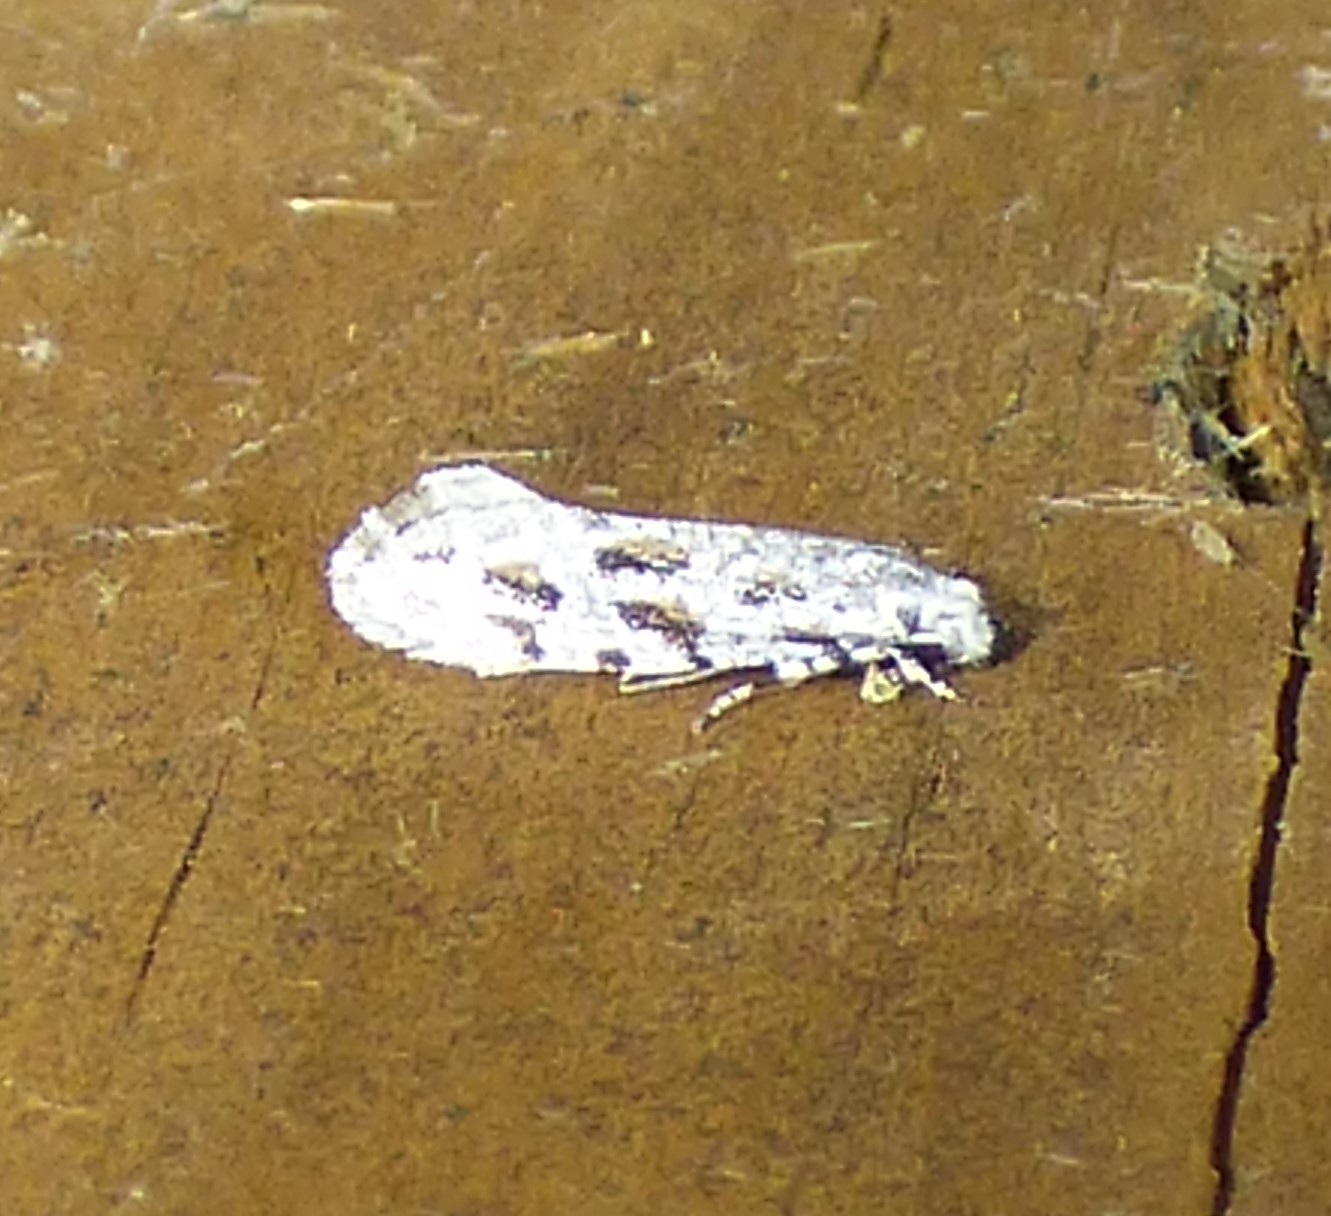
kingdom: Animalia
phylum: Arthropoda
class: Insecta
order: Lepidoptera
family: Meessiidae
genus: Diachorisia
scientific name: Diachorisia velatella
